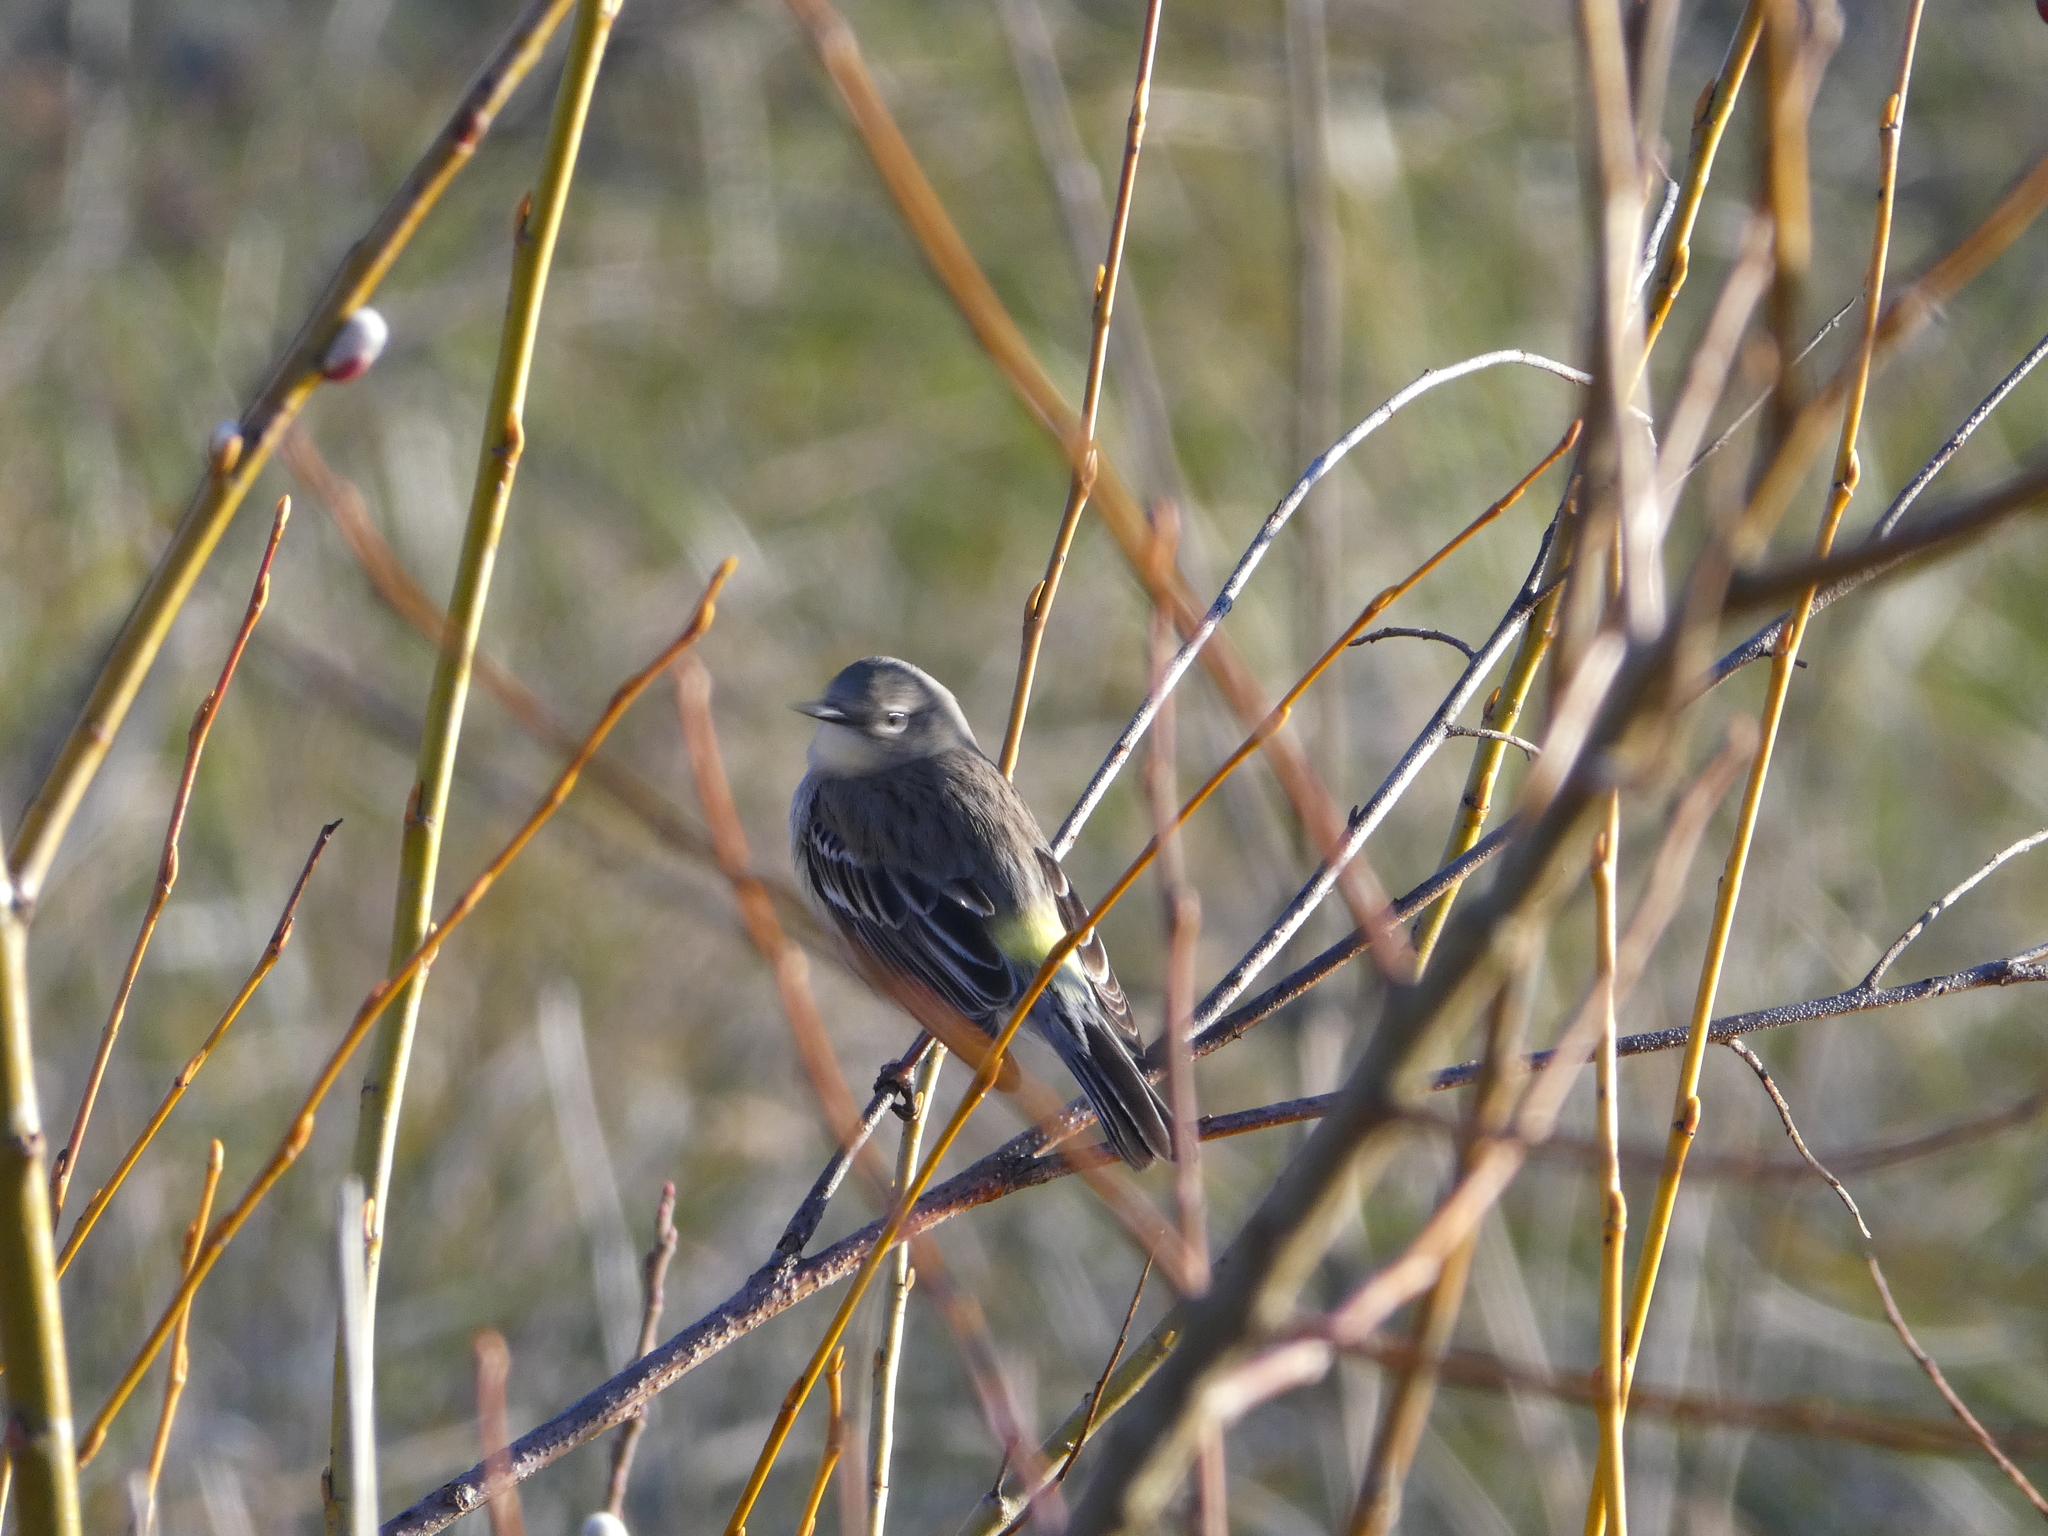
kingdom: Animalia
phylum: Chordata
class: Aves
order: Passeriformes
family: Parulidae
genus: Setophaga
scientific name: Setophaga coronata
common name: Myrtle warbler
